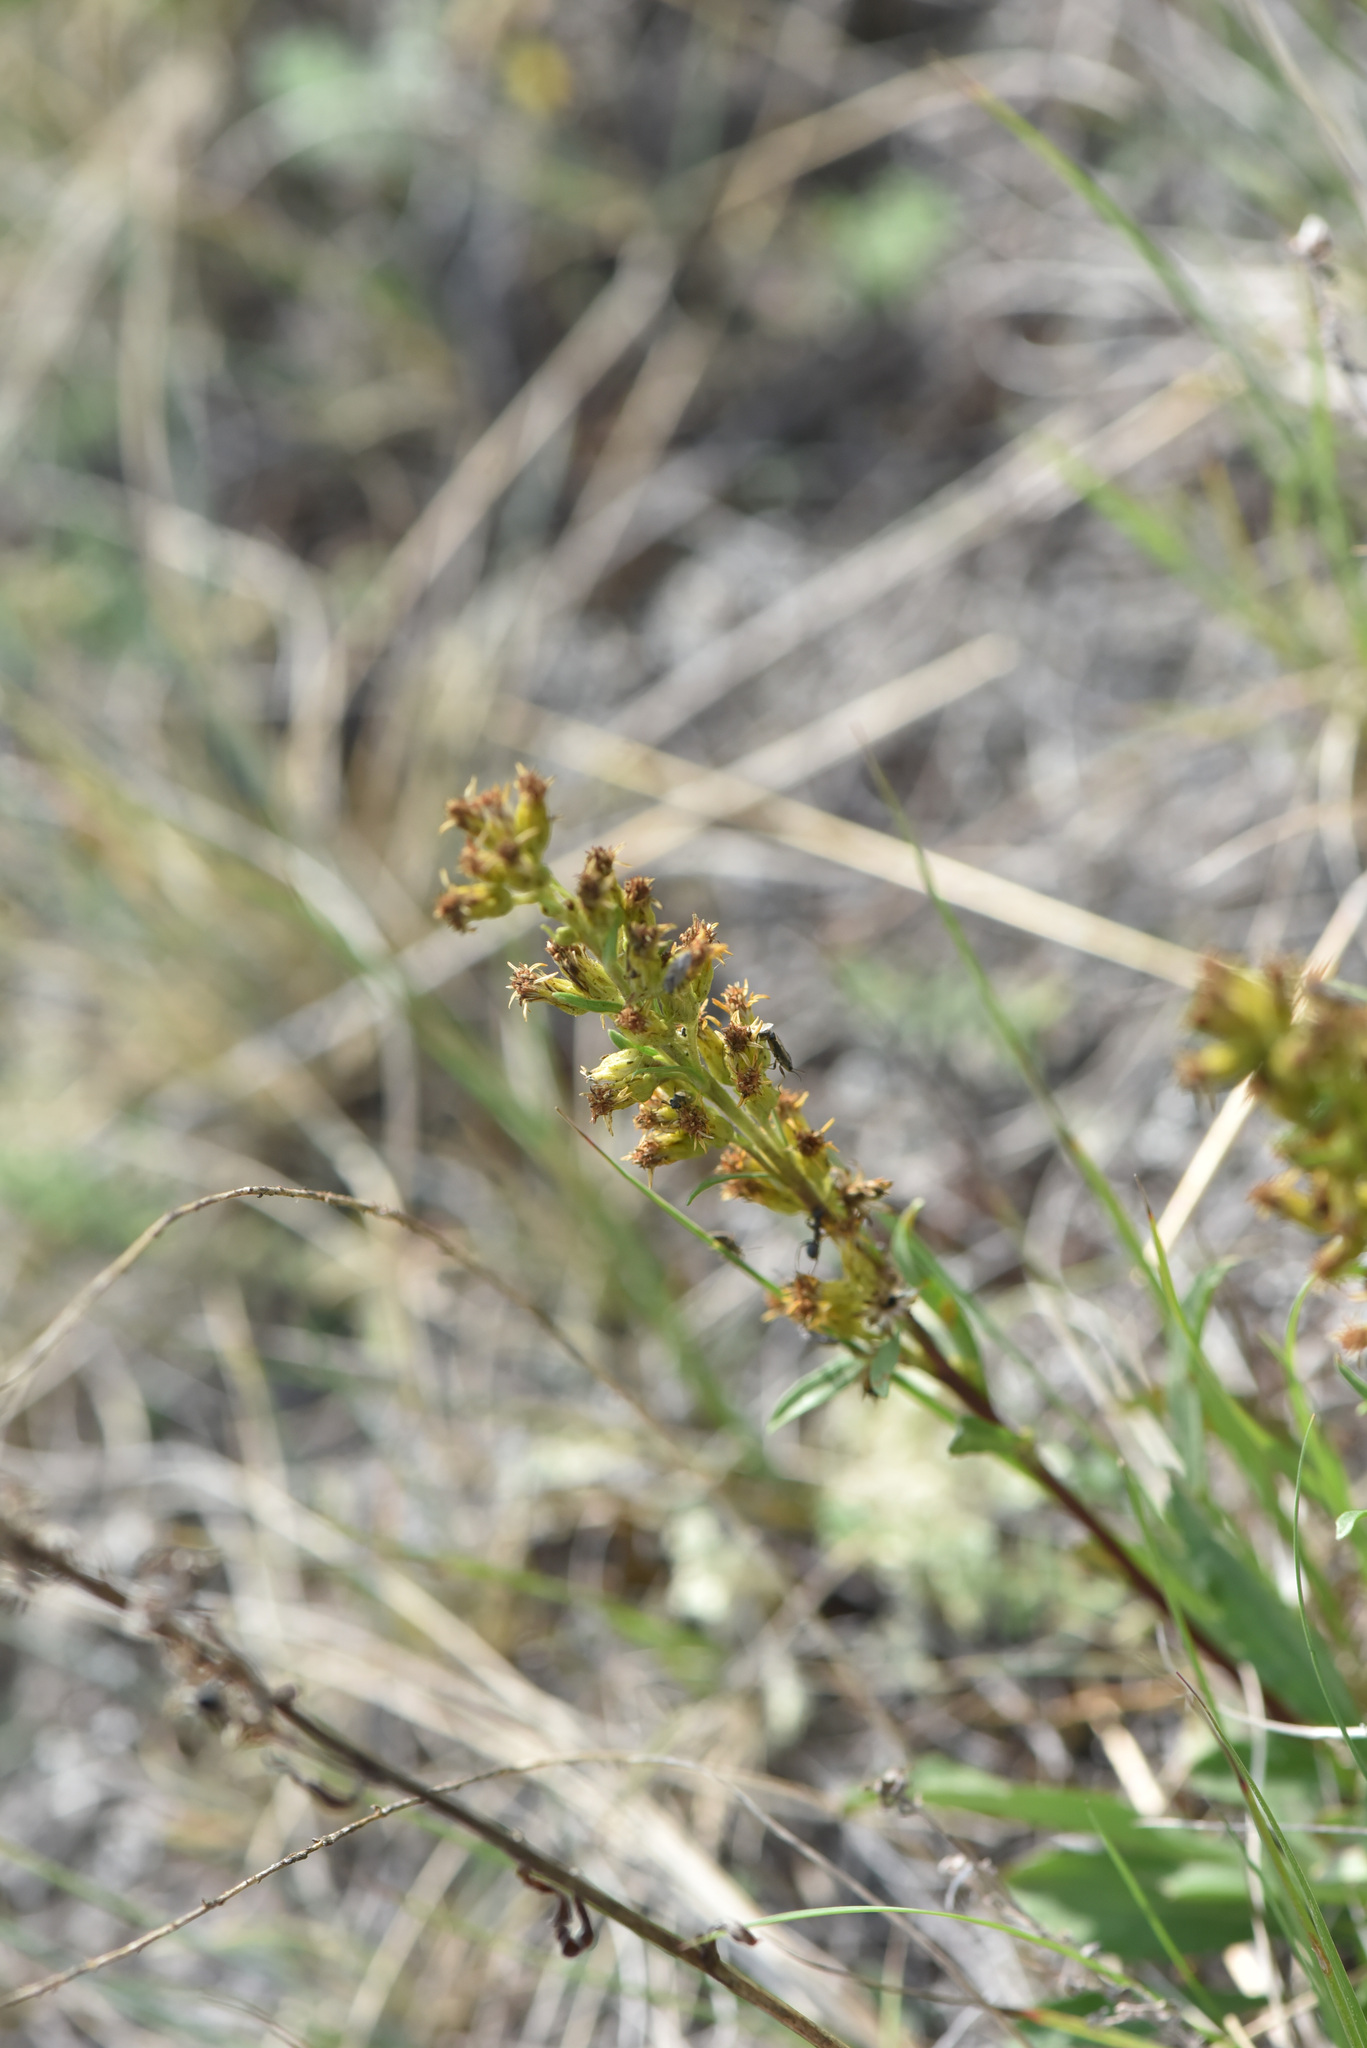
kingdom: Plantae
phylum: Tracheophyta
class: Magnoliopsida
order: Asterales
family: Asteraceae
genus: Solidago
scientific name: Solidago glutinosa
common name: Decumbent goldenrod
